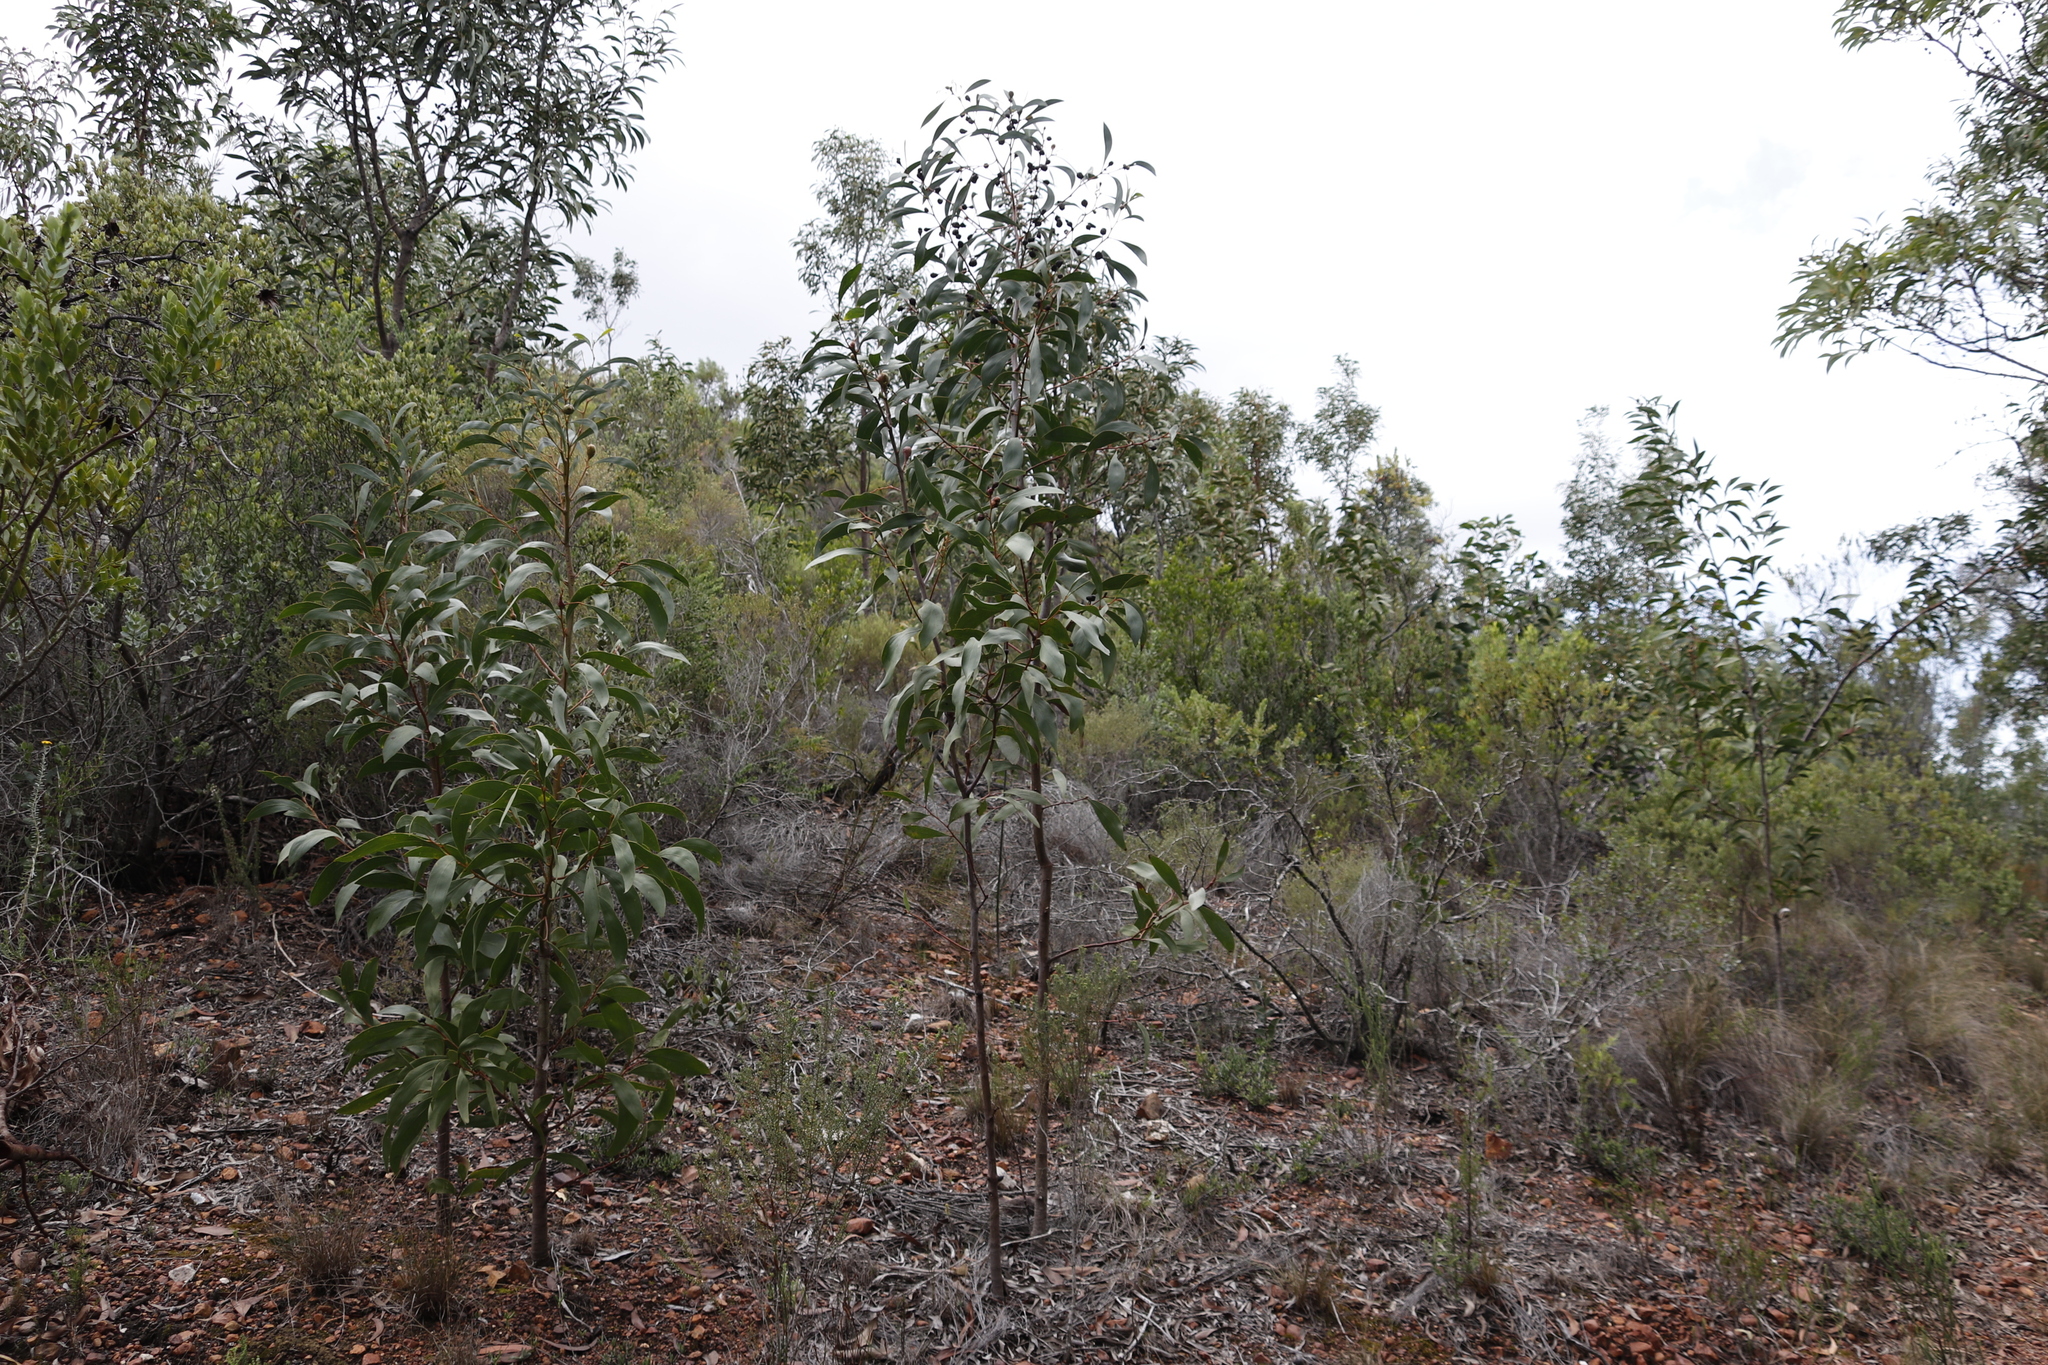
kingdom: Plantae
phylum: Tracheophyta
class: Magnoliopsida
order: Fabales
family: Fabaceae
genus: Acacia
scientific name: Acacia pycnantha
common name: Golden wattle
